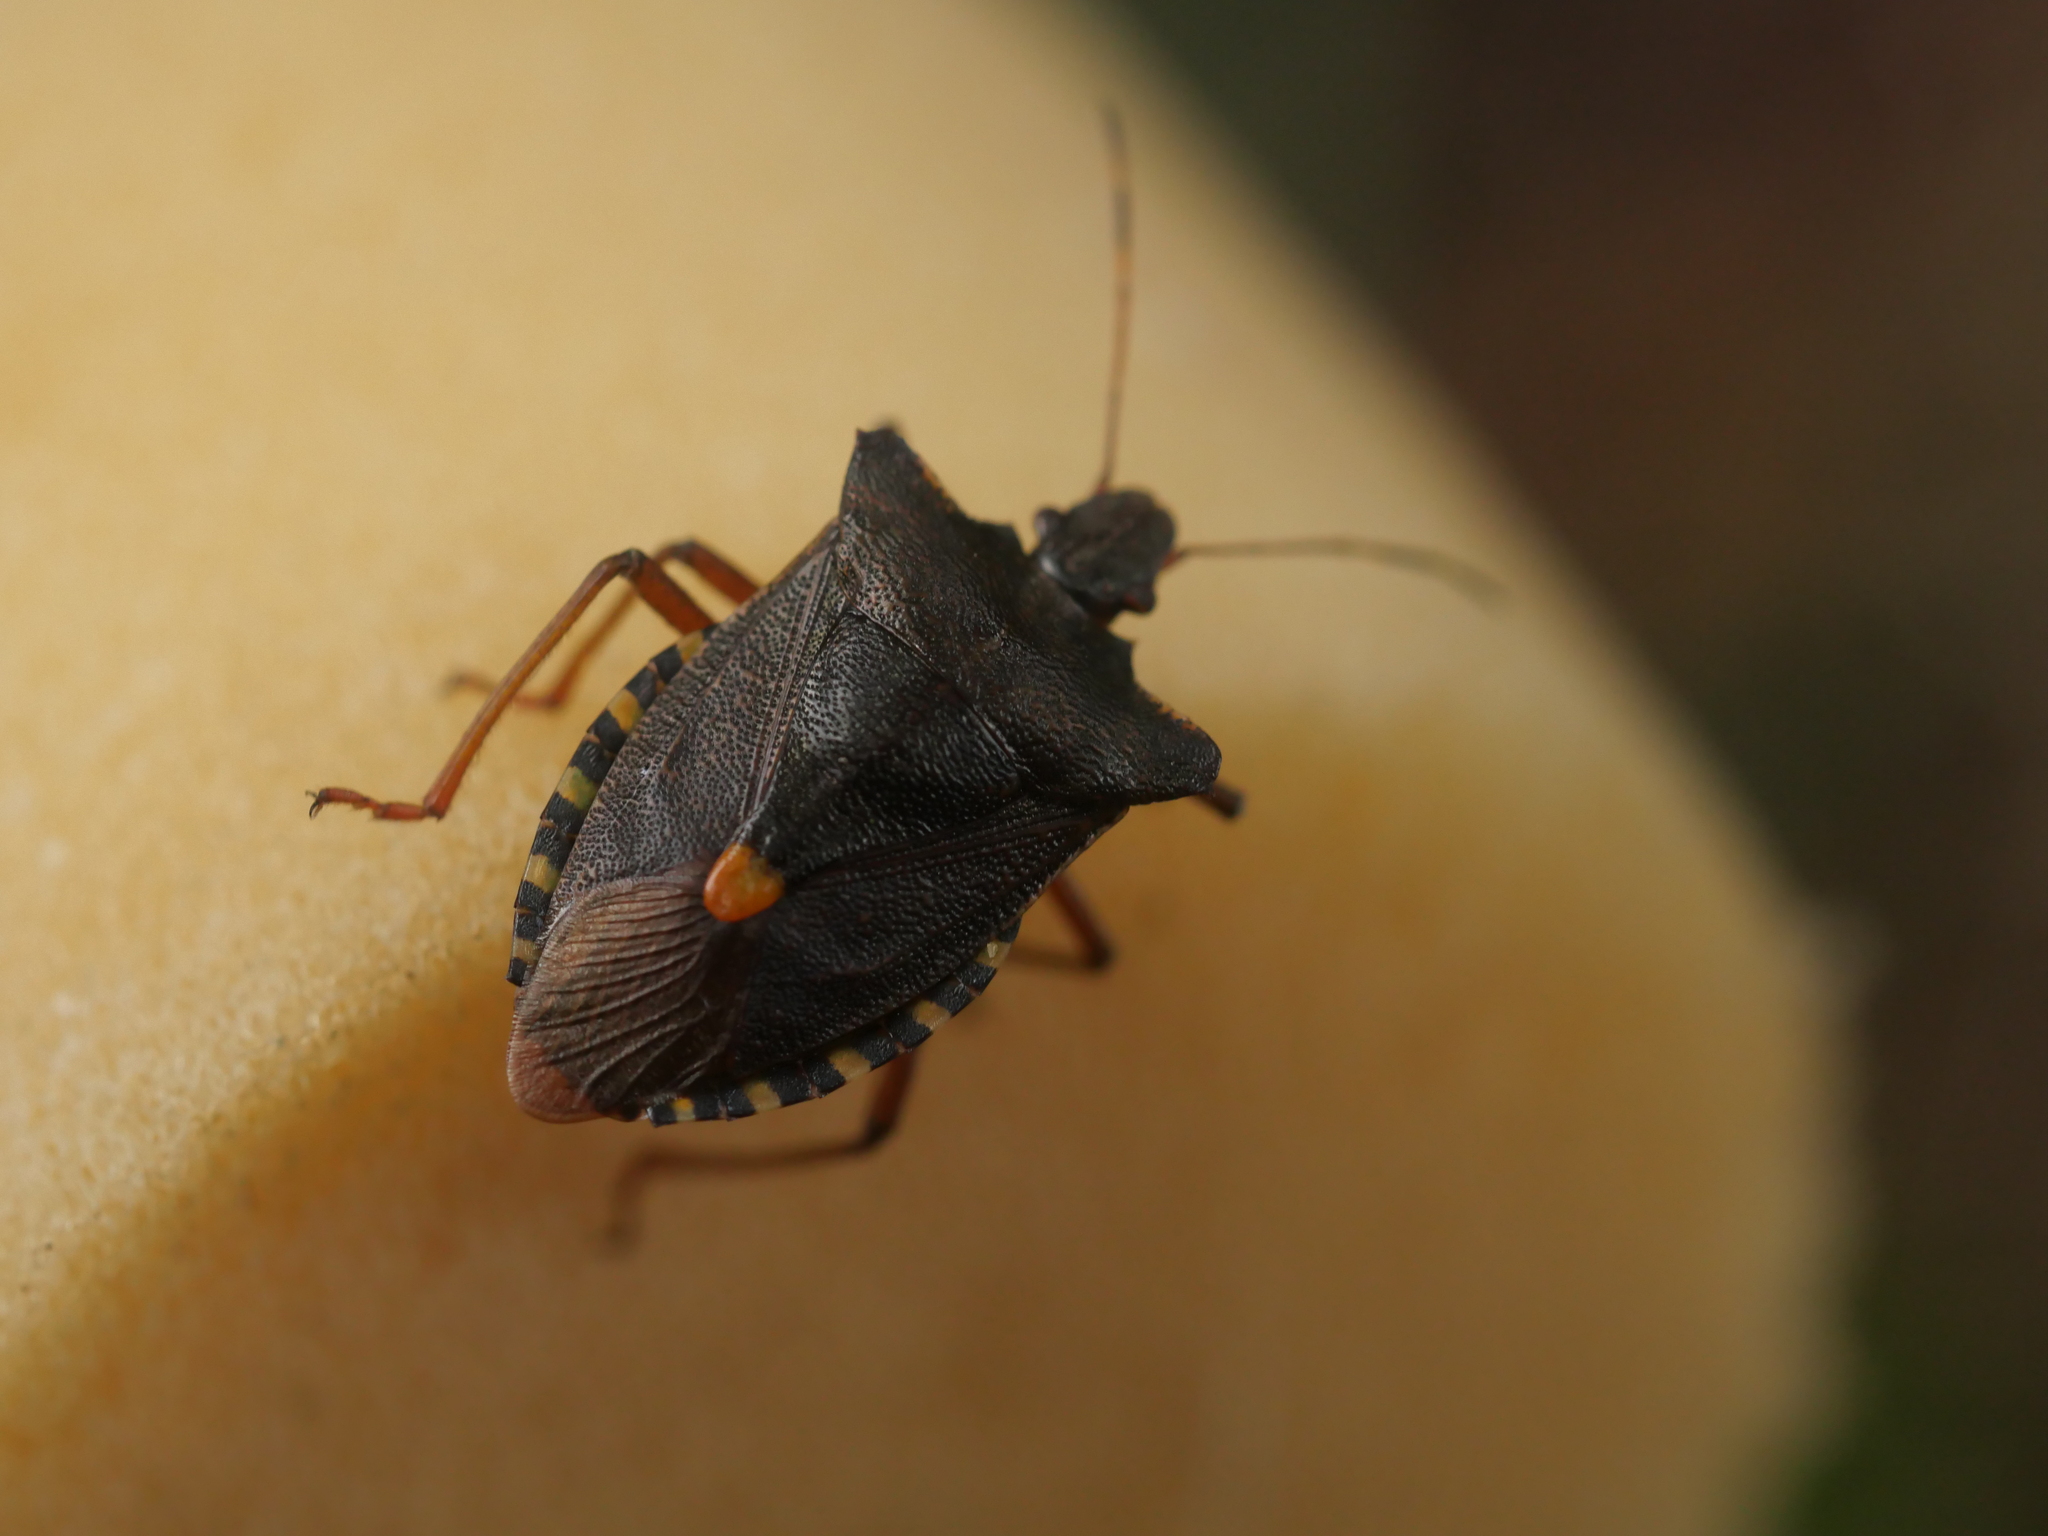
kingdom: Animalia
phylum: Arthropoda
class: Insecta
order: Hemiptera
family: Pentatomidae
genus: Pentatoma
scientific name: Pentatoma rufipes
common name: Forest bug
